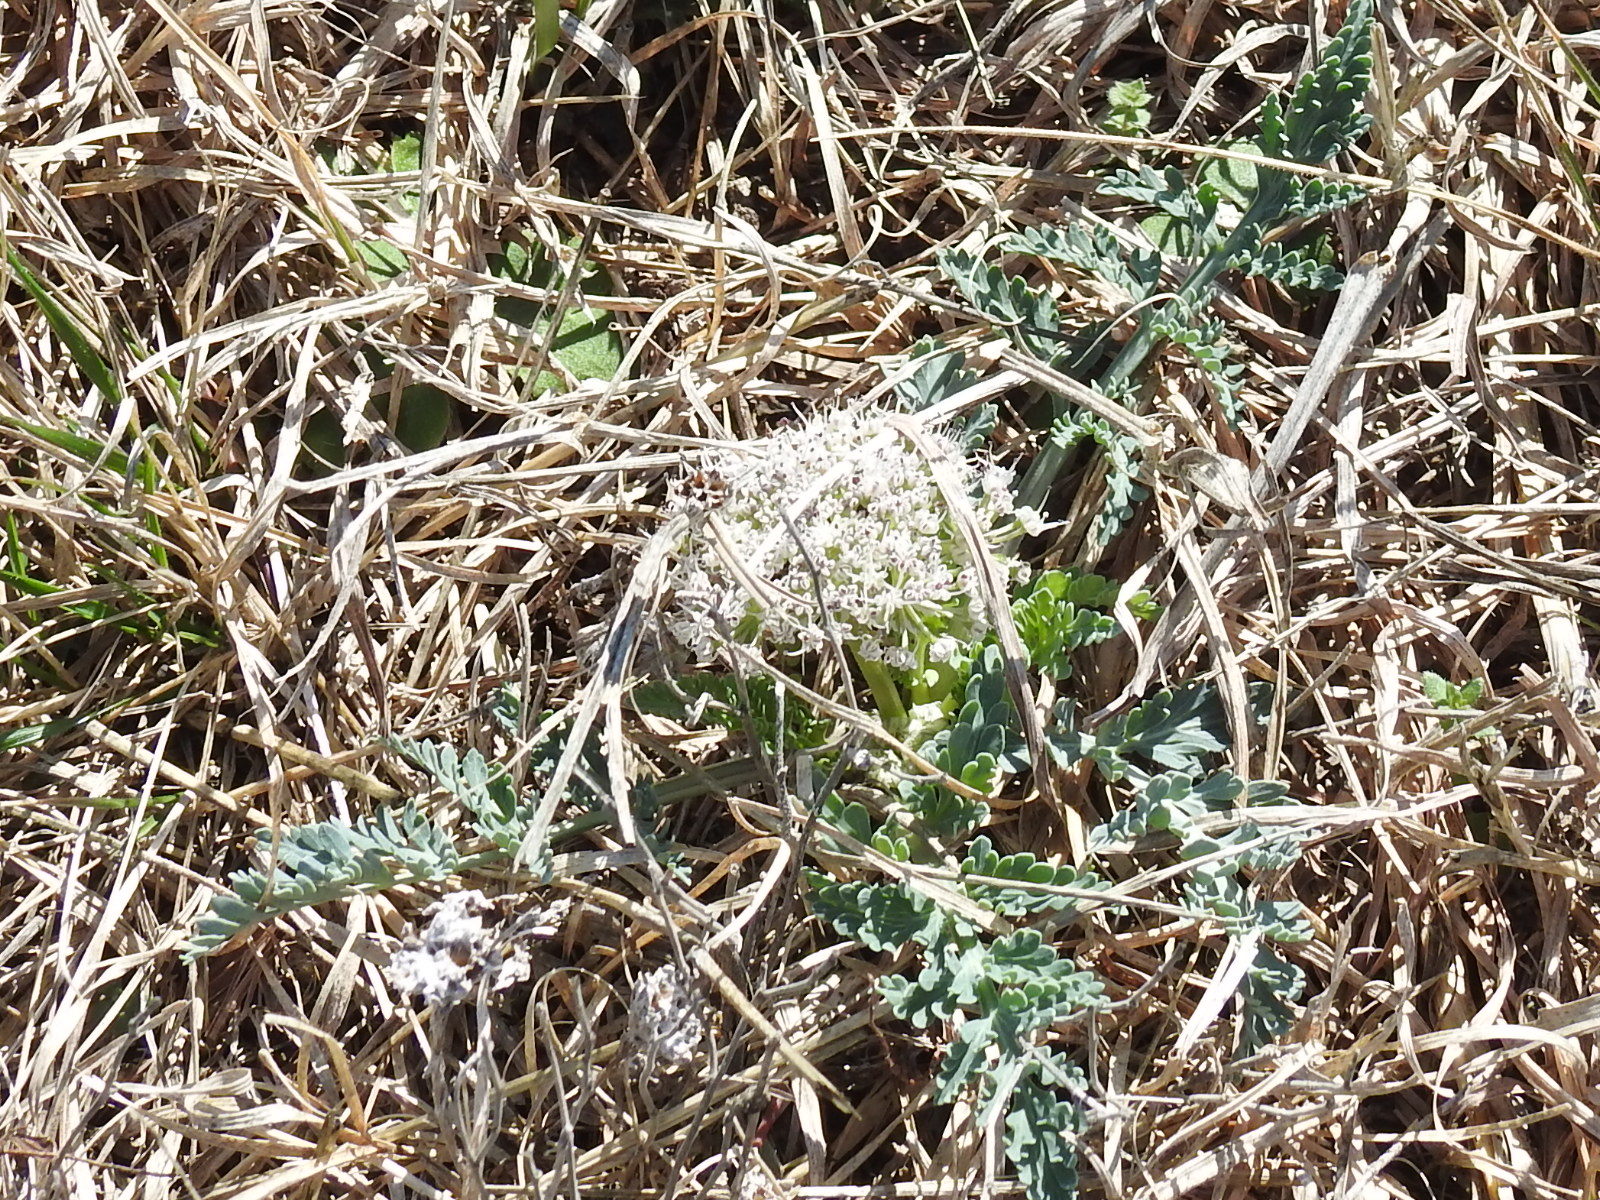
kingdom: Plantae
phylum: Tracheophyta
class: Magnoliopsida
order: Apiales
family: Apiaceae
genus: Vesper
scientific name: Vesper macrorhizus
